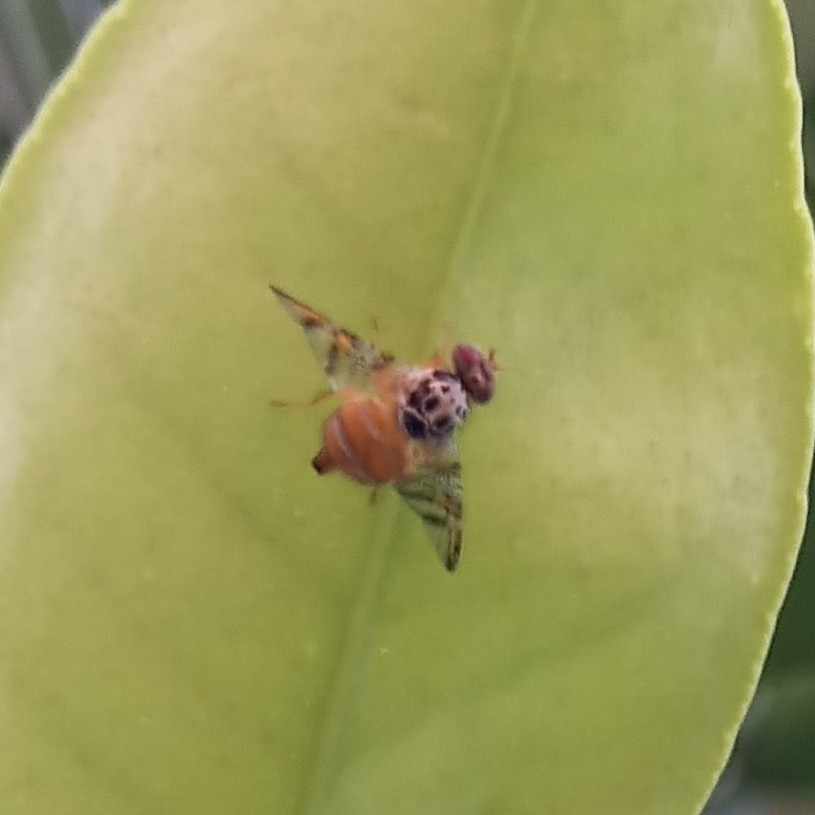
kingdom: Animalia
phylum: Arthropoda
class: Insecta
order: Diptera
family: Tephritidae
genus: Ceratitis
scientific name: Ceratitis capitata
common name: Mediterranean fruit fly
